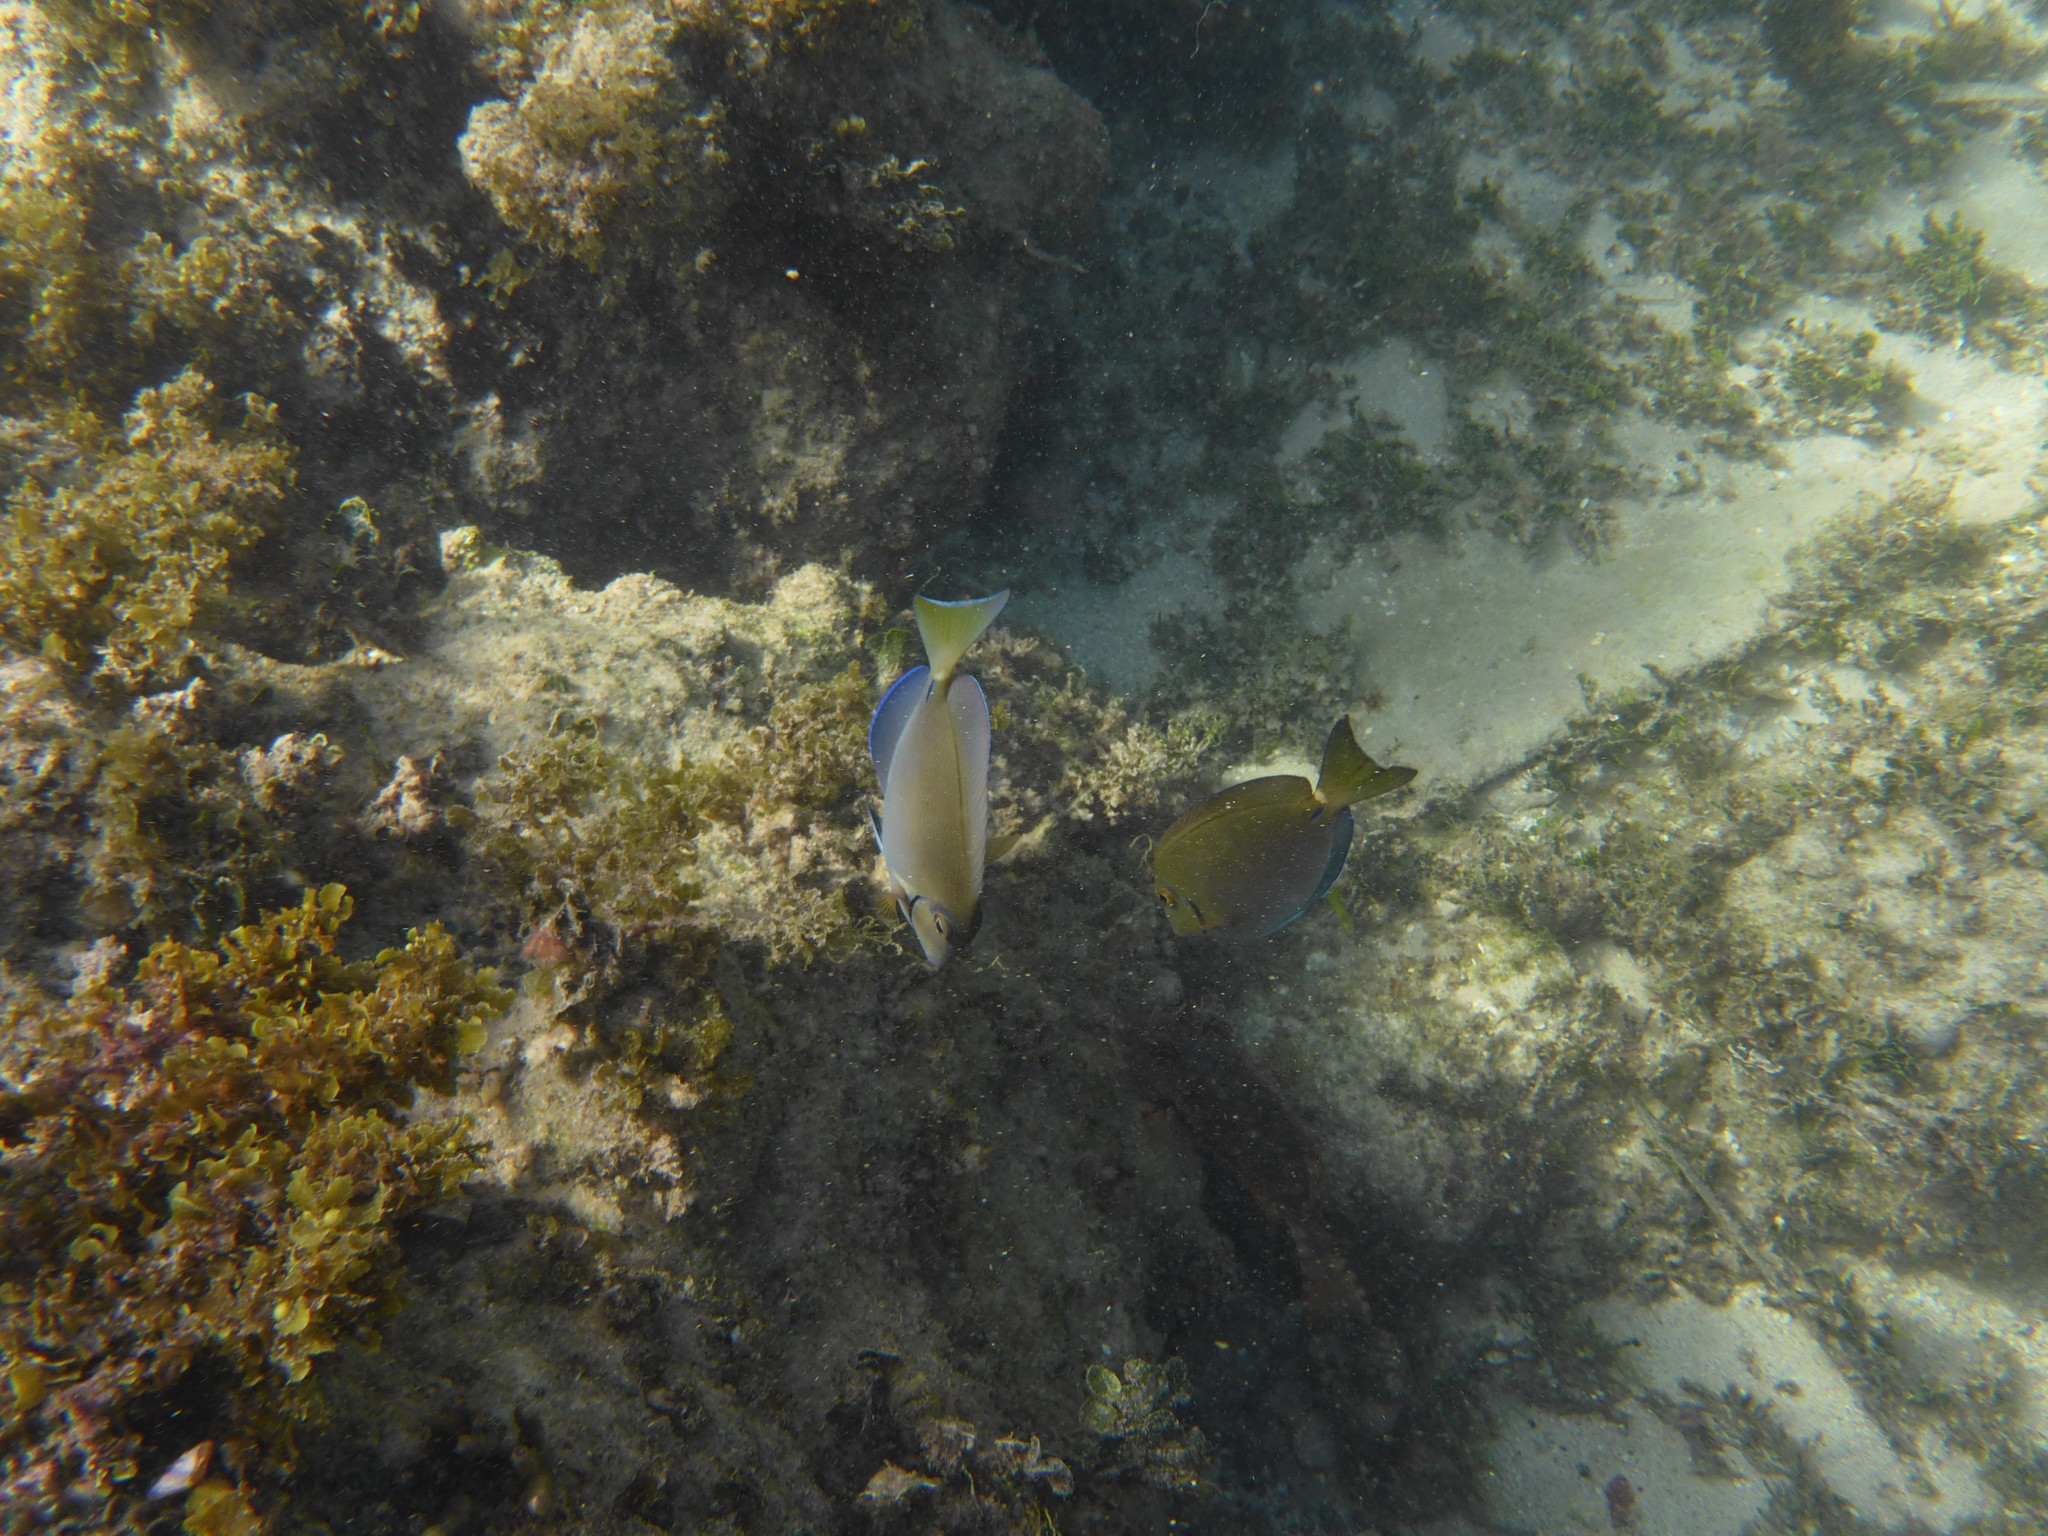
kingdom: Animalia
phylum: Chordata
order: Perciformes
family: Acanthuridae
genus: Acanthurus
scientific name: Acanthurus bahianus
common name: Ocean surgeon
